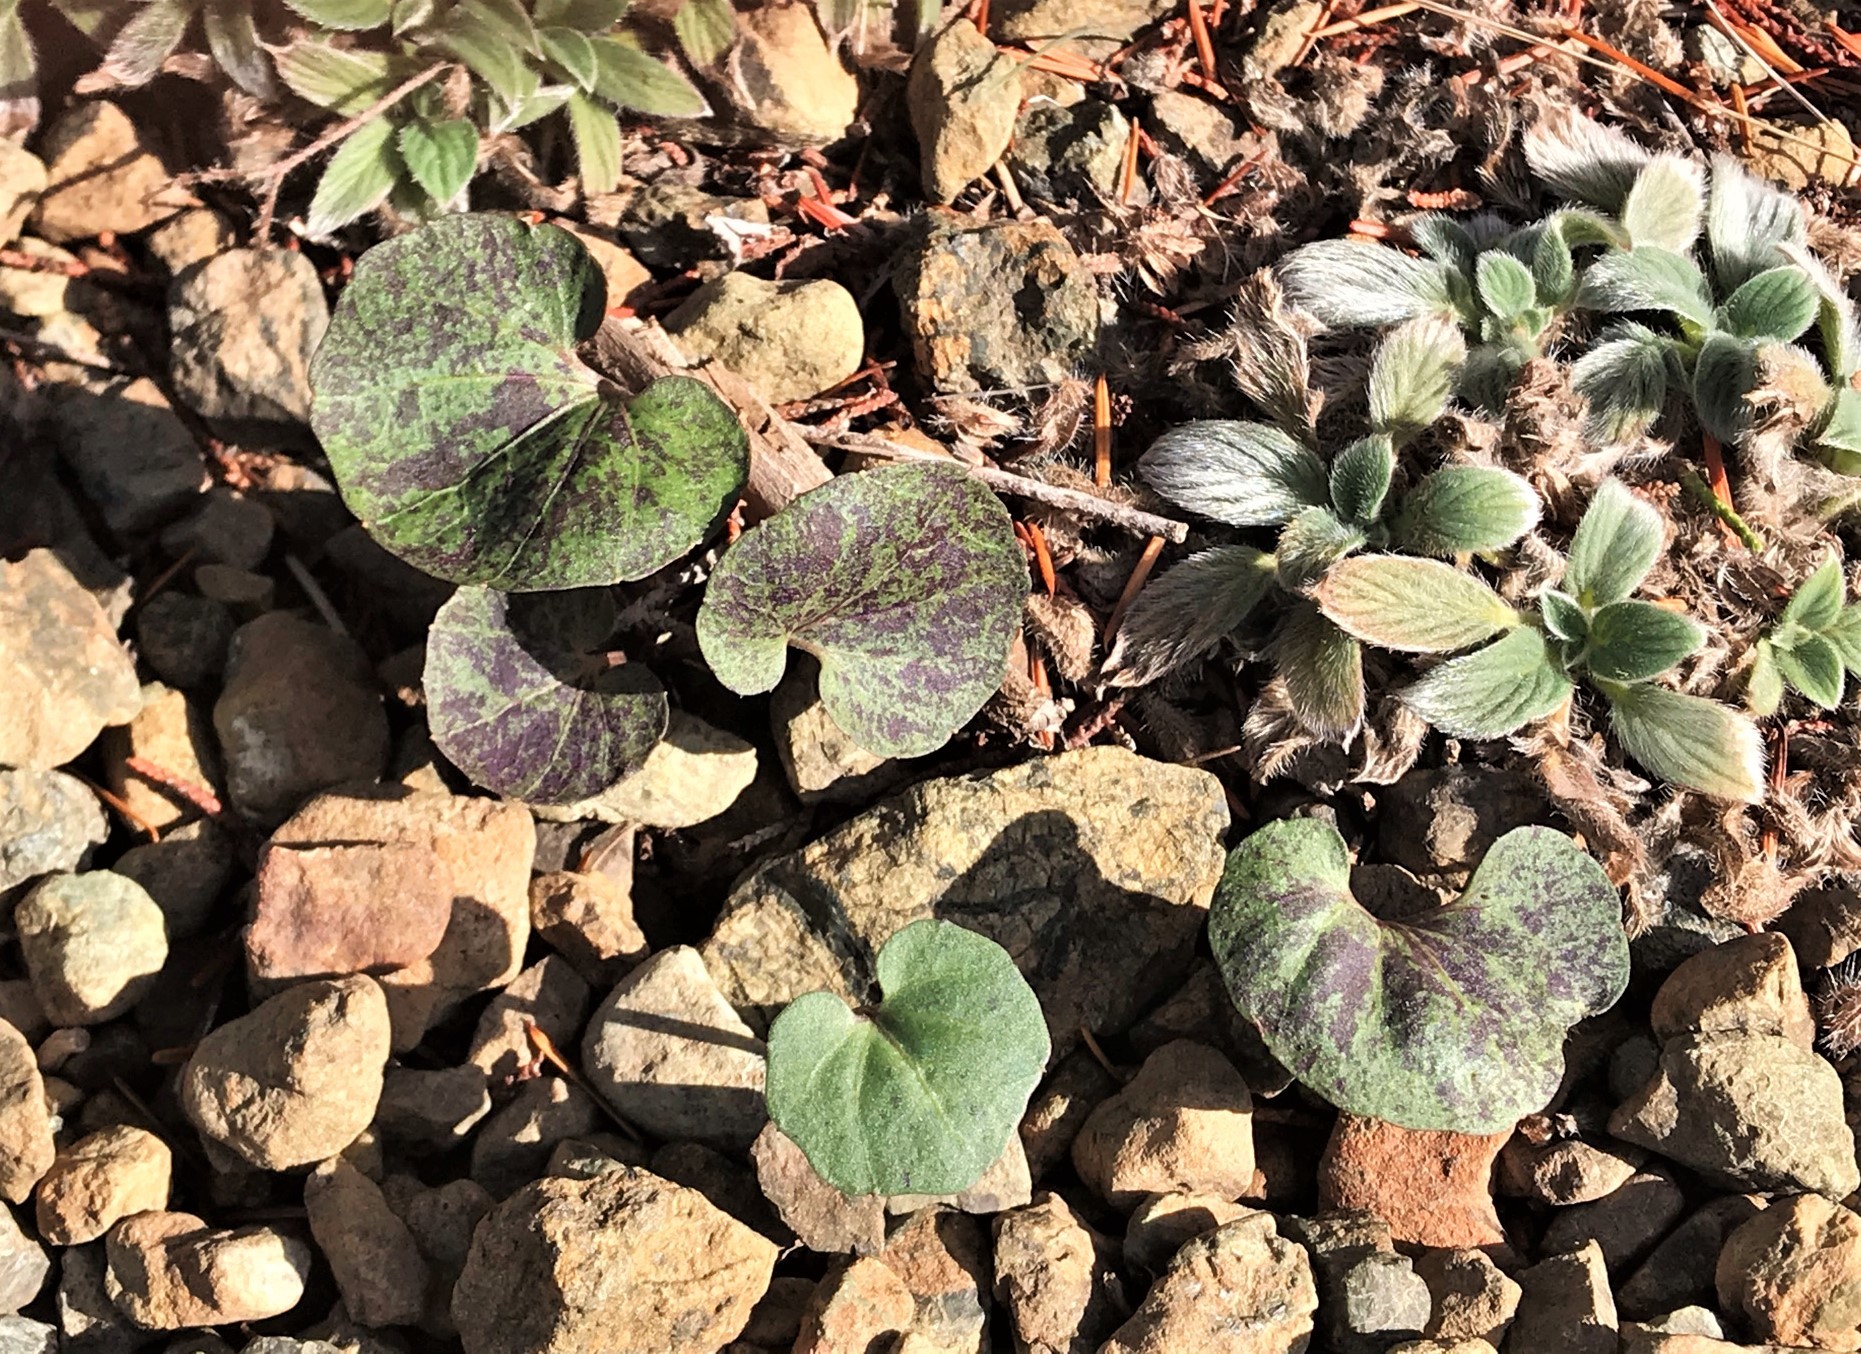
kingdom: Plantae
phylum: Tracheophyta
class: Magnoliopsida
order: Brassicales
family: Brassicaceae
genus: Cardamine
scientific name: Cardamine californica
